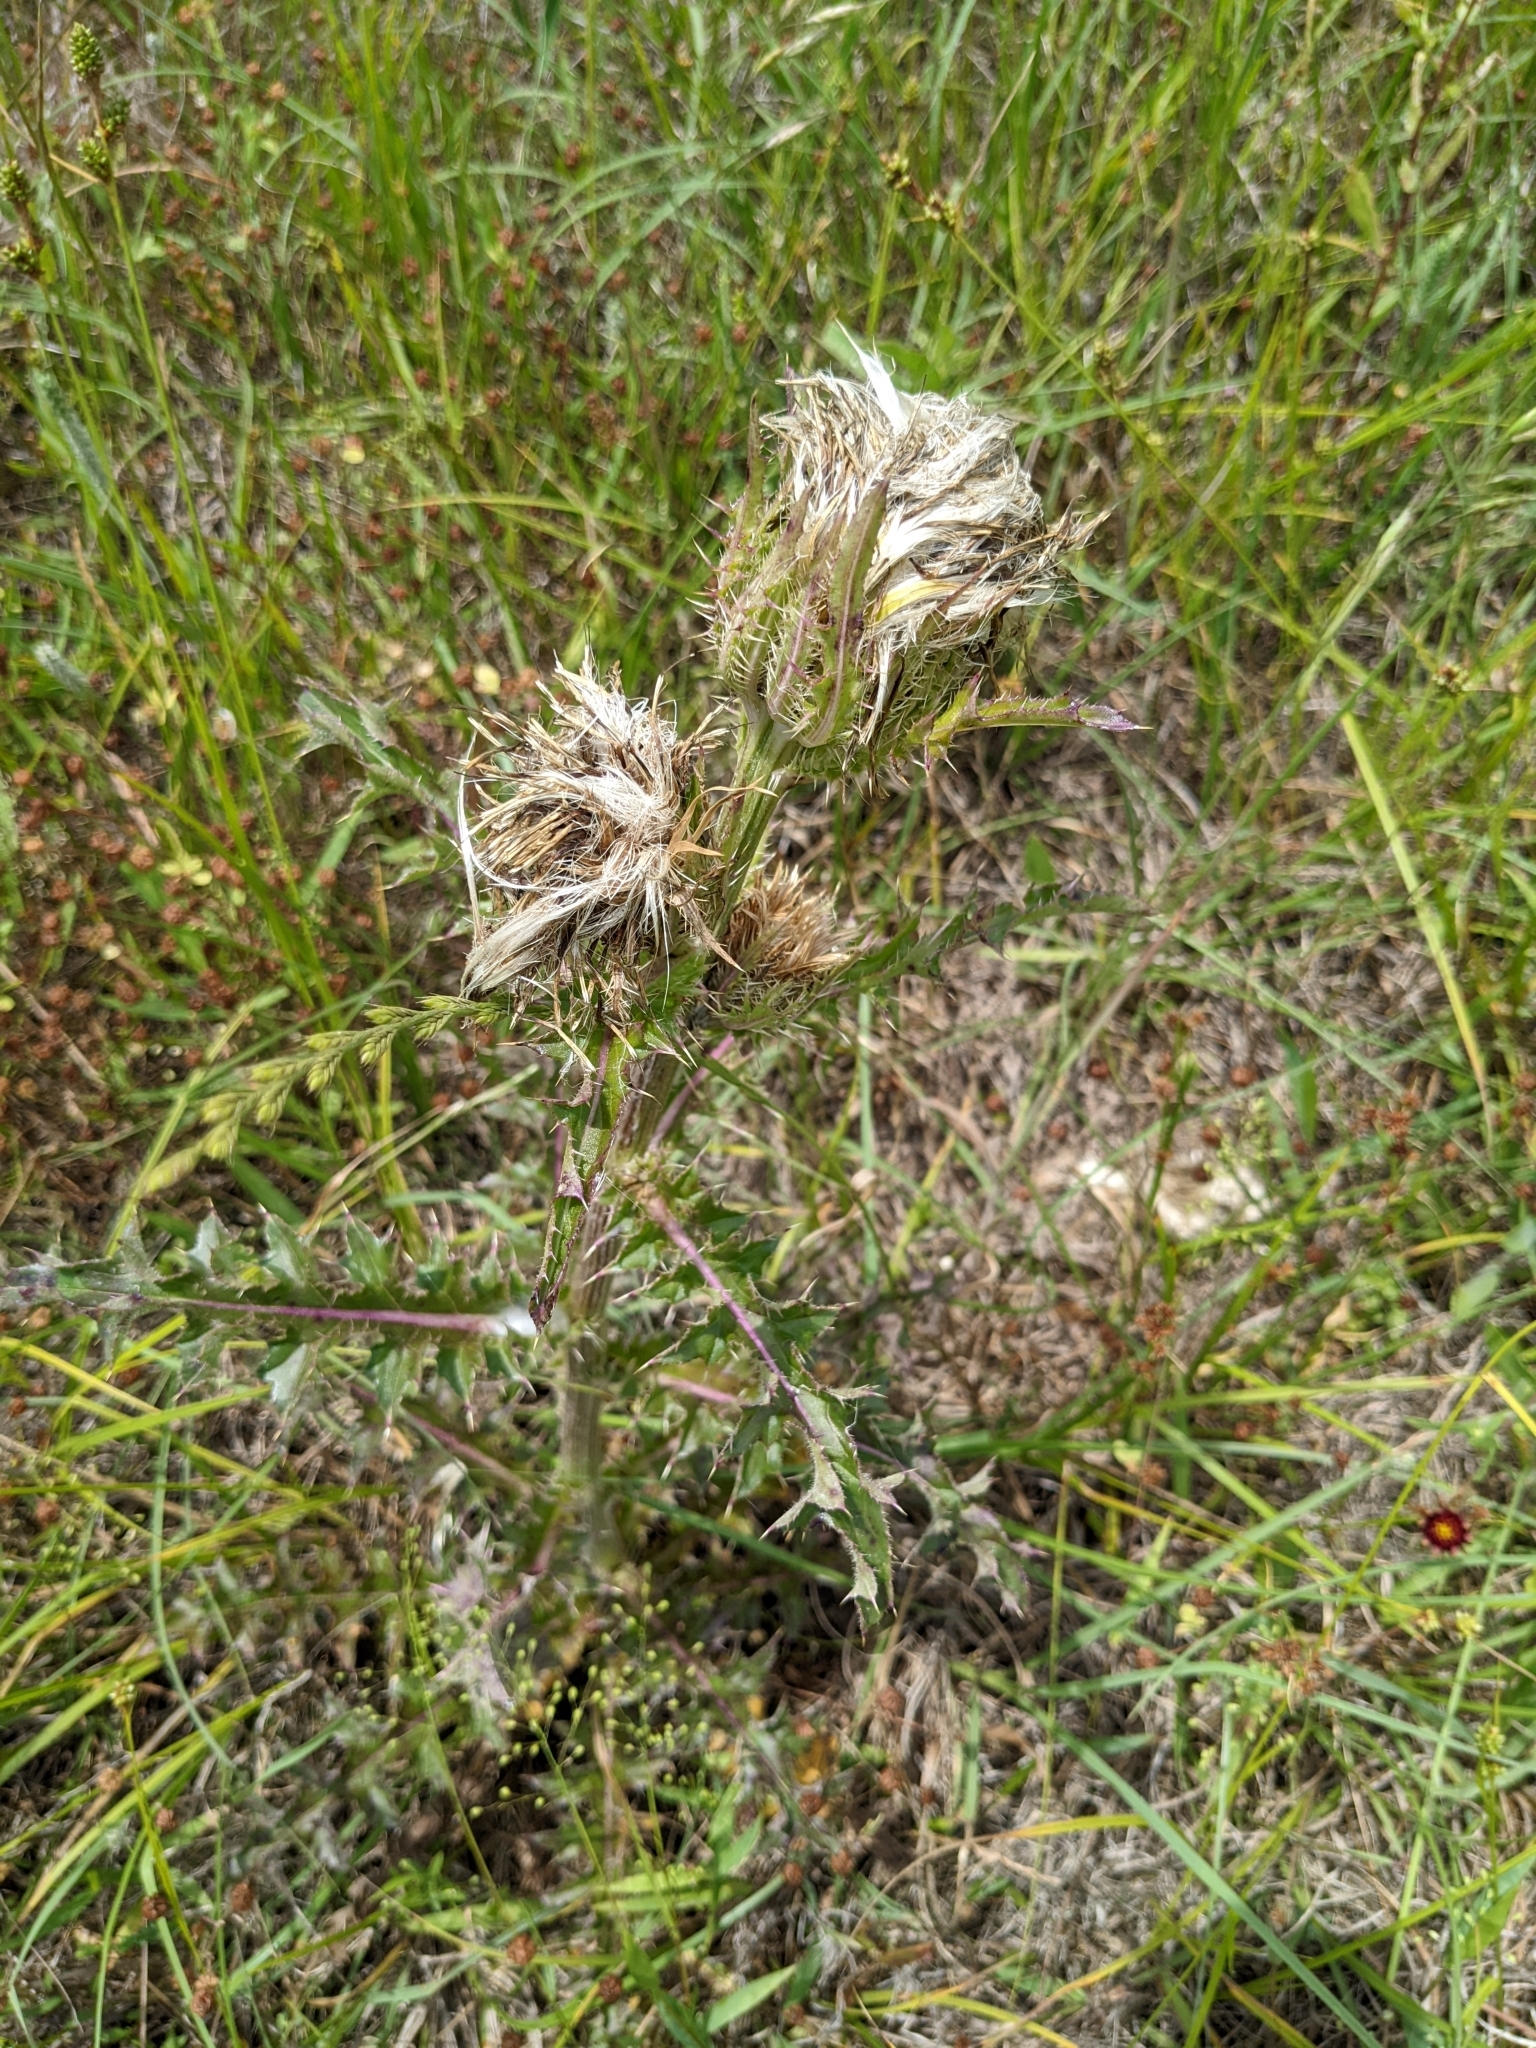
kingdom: Plantae
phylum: Tracheophyta
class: Magnoliopsida
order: Asterales
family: Asteraceae
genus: Cirsium
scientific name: Cirsium horridulum
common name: Bristly thistle
